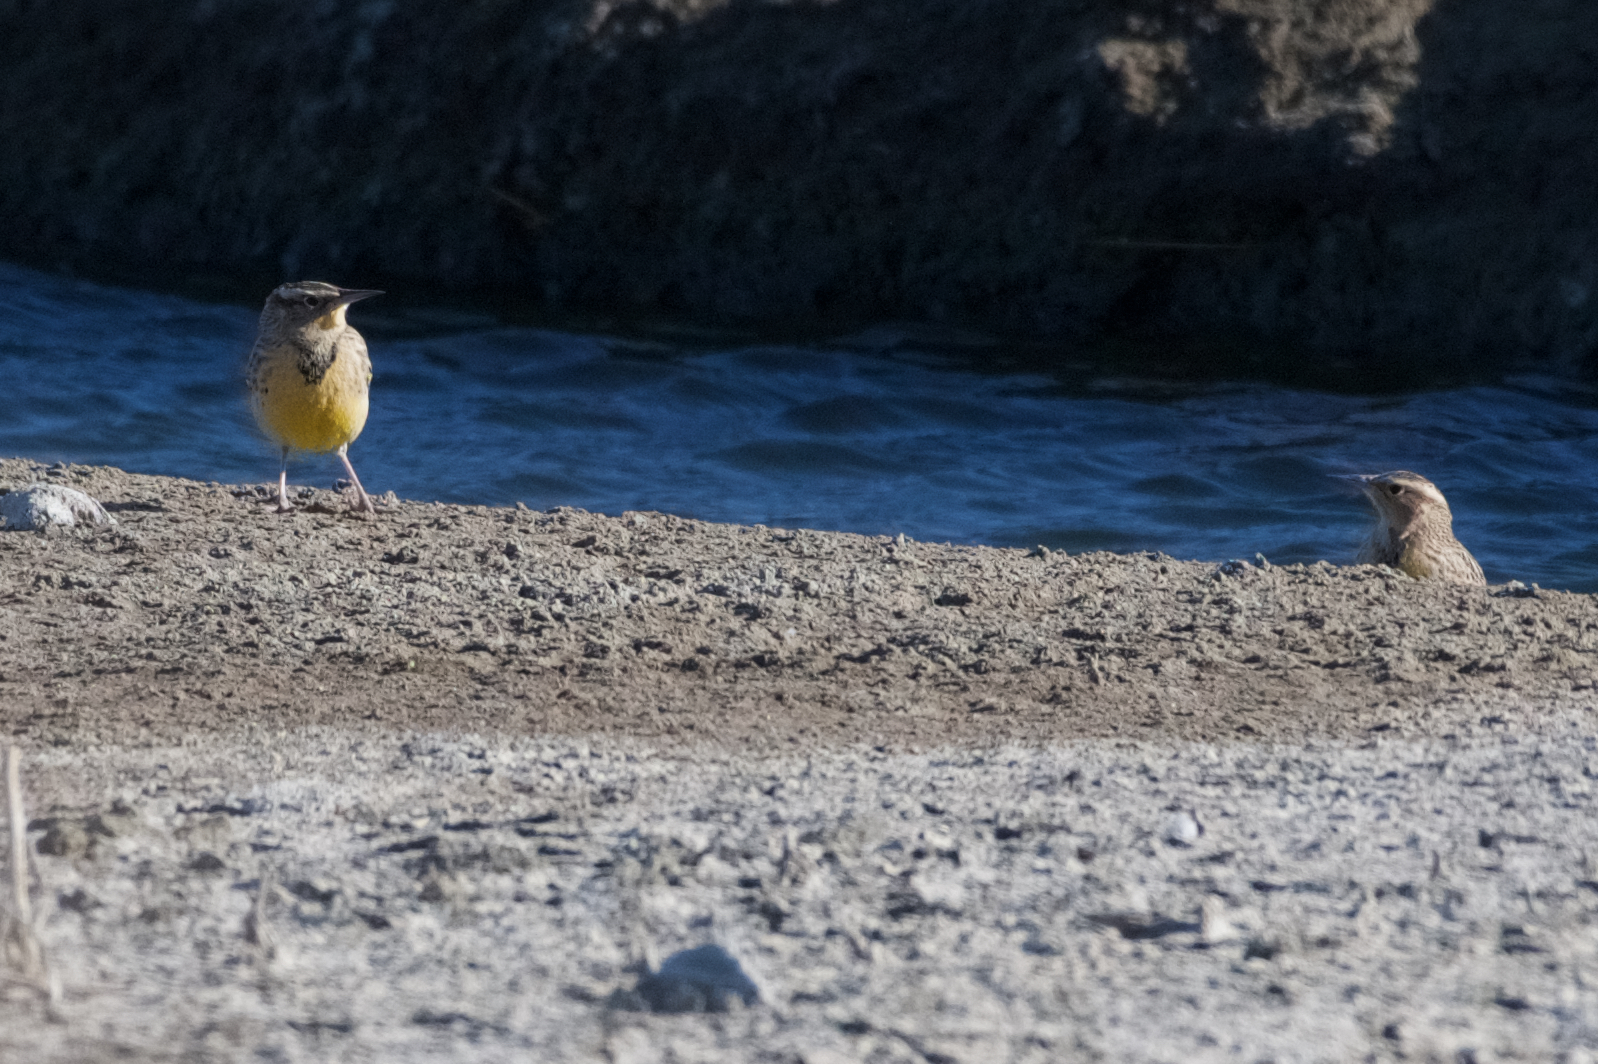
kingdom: Animalia
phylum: Chordata
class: Aves
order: Passeriformes
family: Icteridae
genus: Sturnella
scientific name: Sturnella neglecta
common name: Western meadowlark
